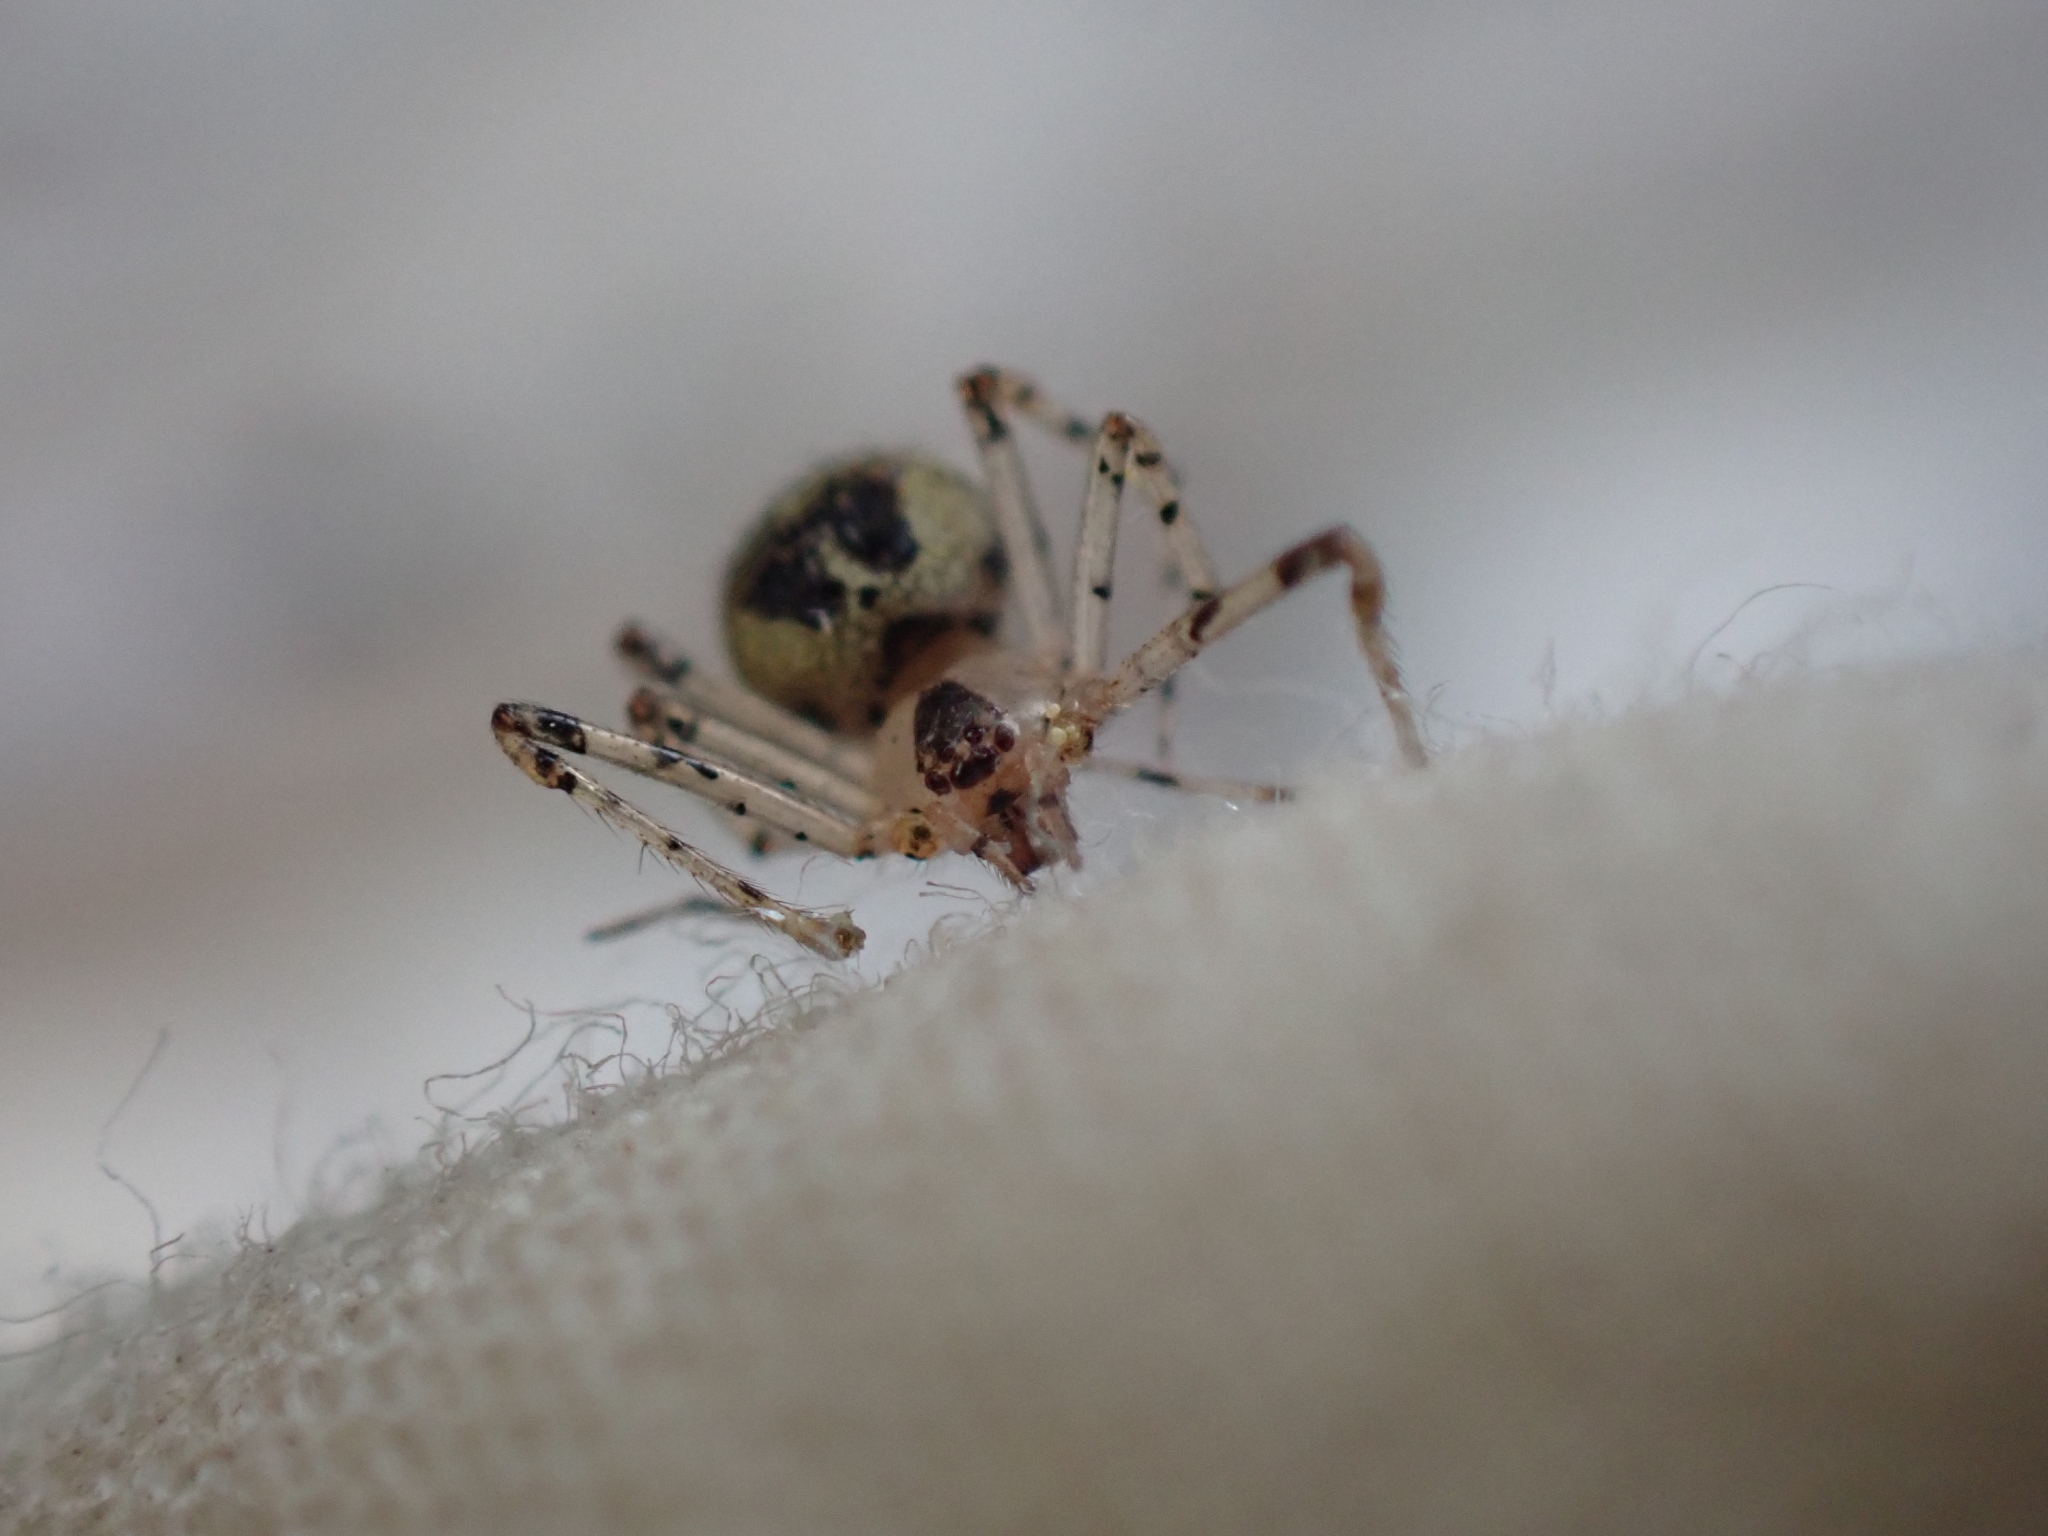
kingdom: Animalia
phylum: Arthropoda
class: Arachnida
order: Araneae
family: Theridiidae
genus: Platnickina
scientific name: Platnickina tincta
